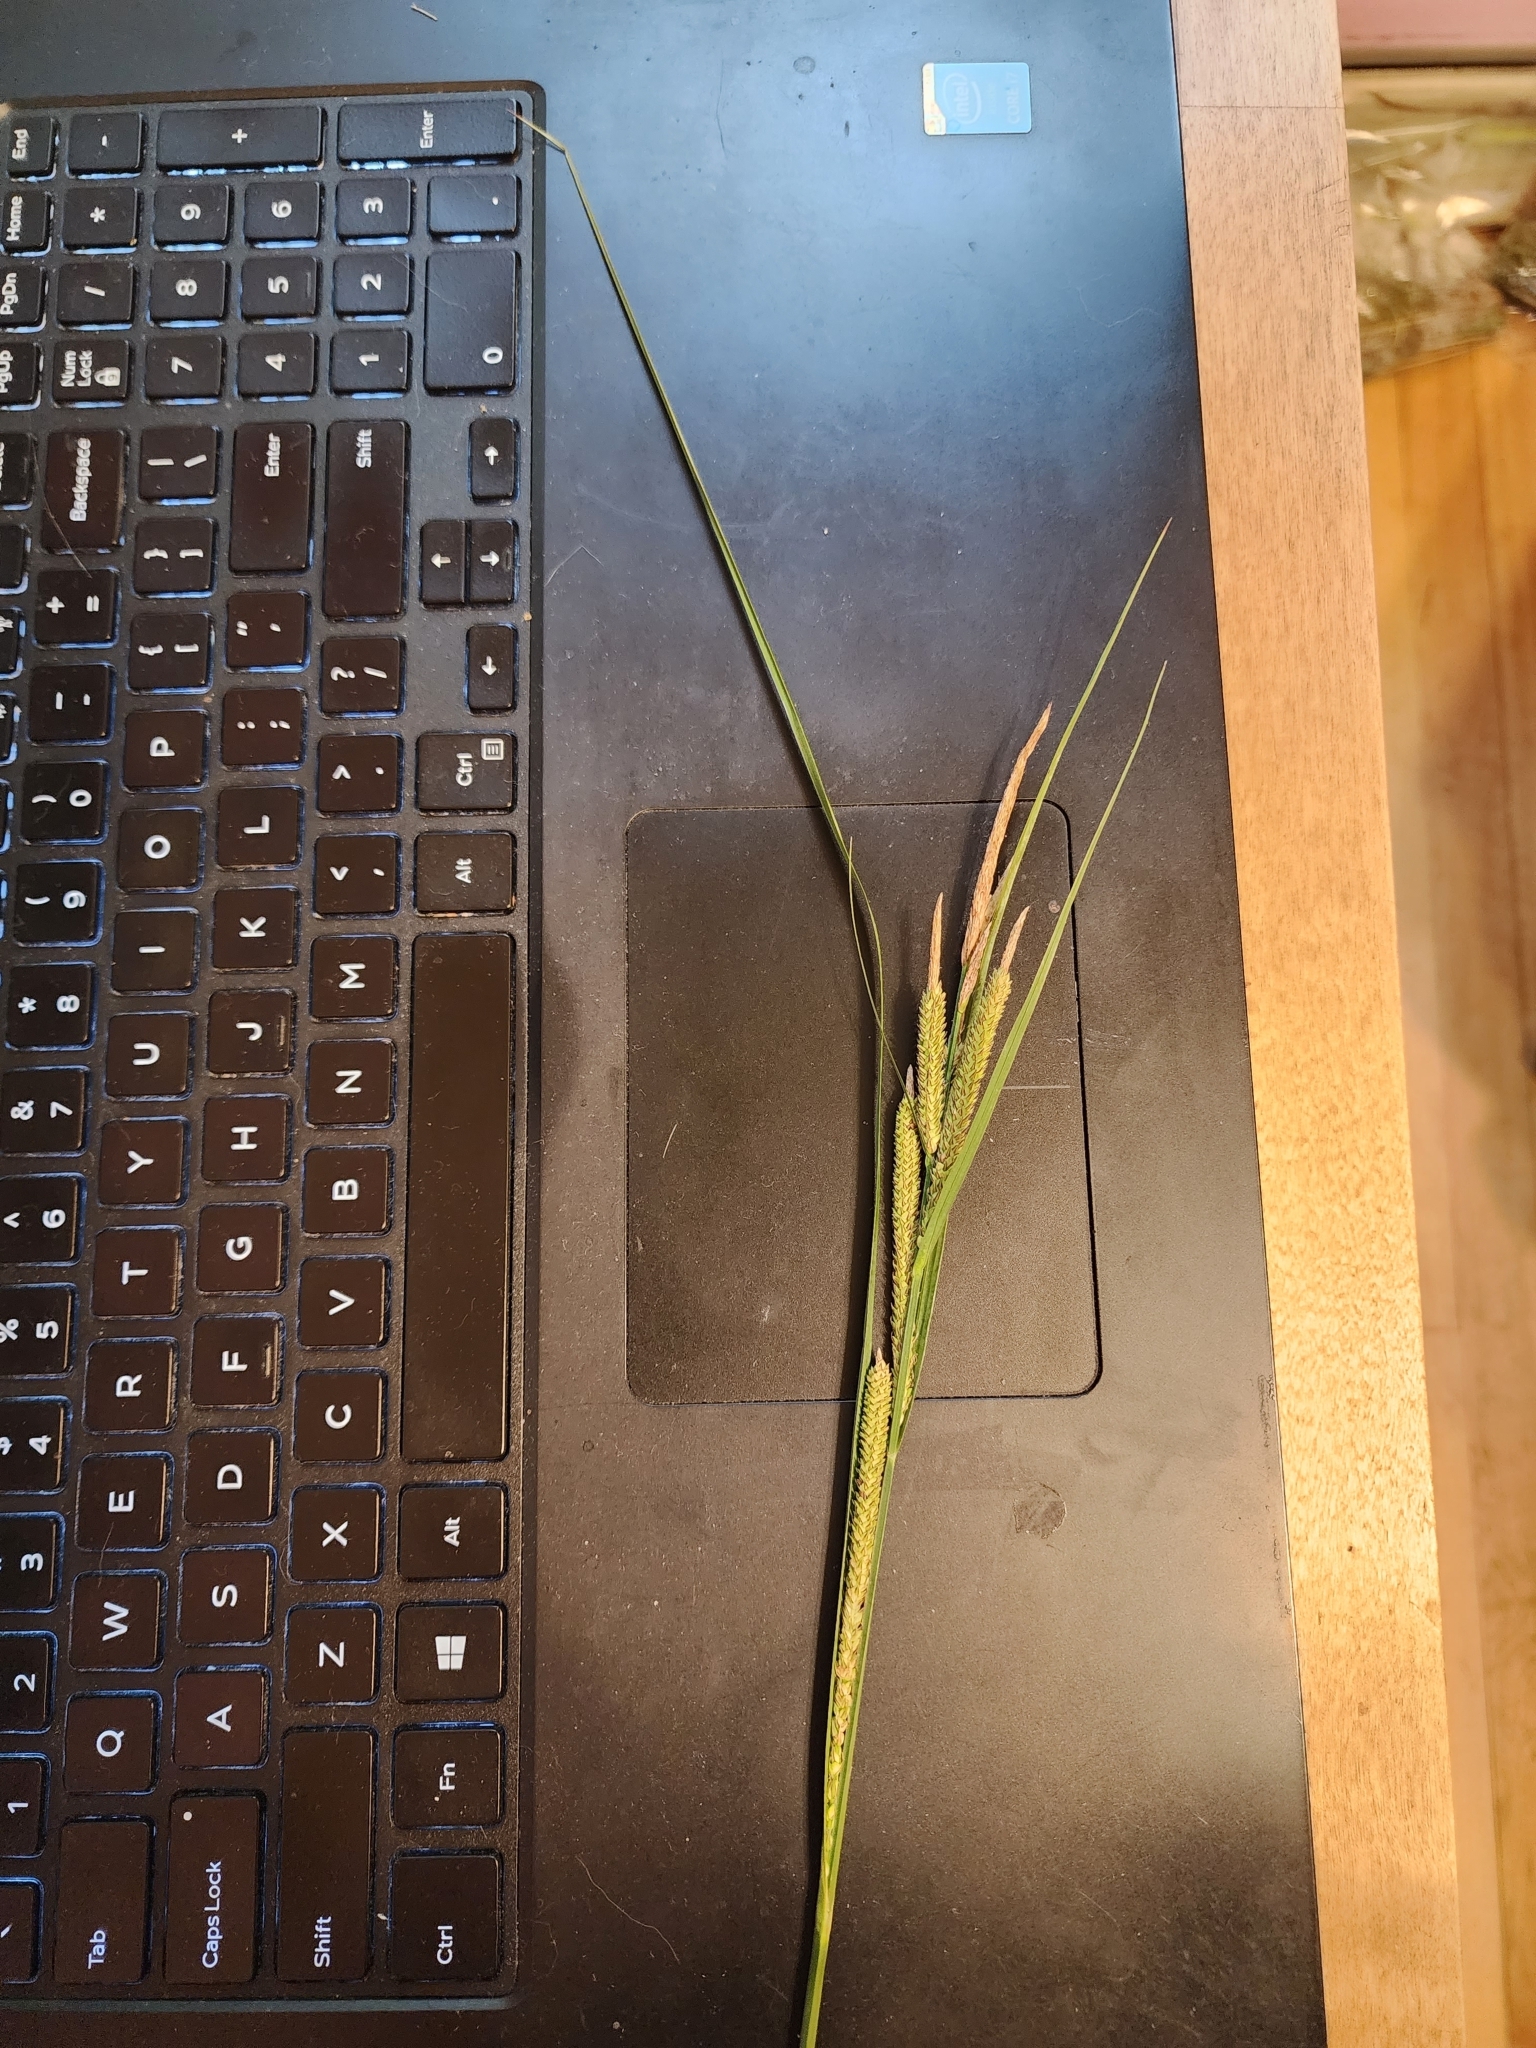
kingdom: Plantae
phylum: Tracheophyta
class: Liliopsida
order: Poales
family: Cyperaceae
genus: Carex
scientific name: Carex aquatilis
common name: Water sedge
